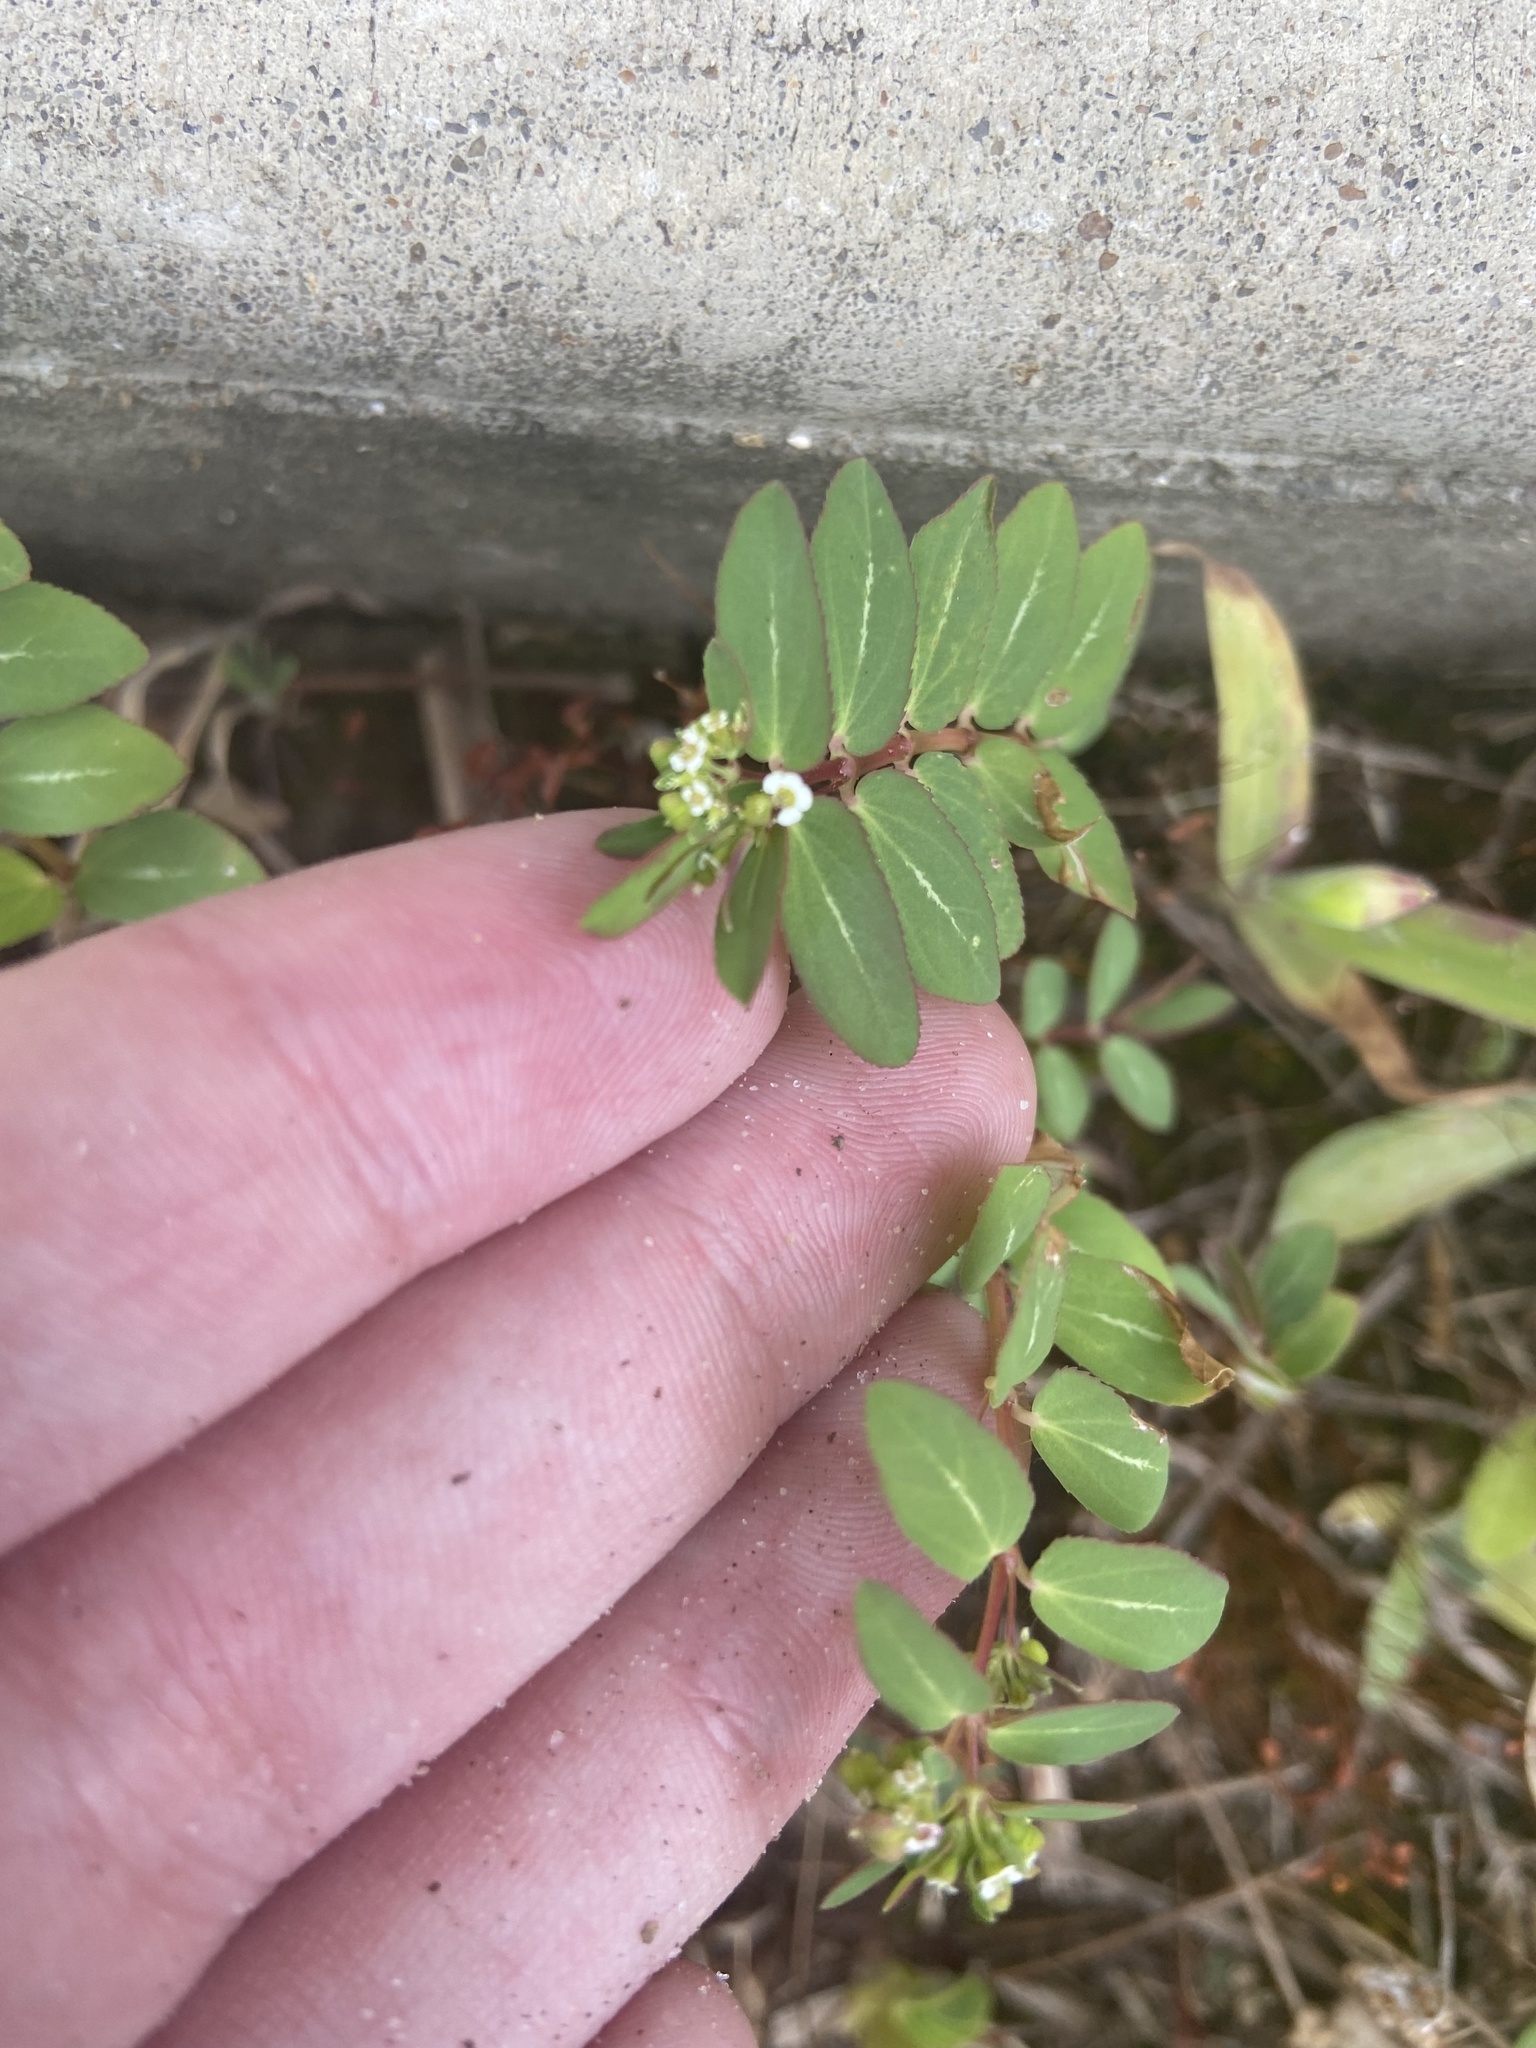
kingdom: Plantae
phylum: Tracheophyta
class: Magnoliopsida
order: Malpighiales
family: Euphorbiaceae
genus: Euphorbia
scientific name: Euphorbia hyssopifolia
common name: Hyssopleaf sandmat
